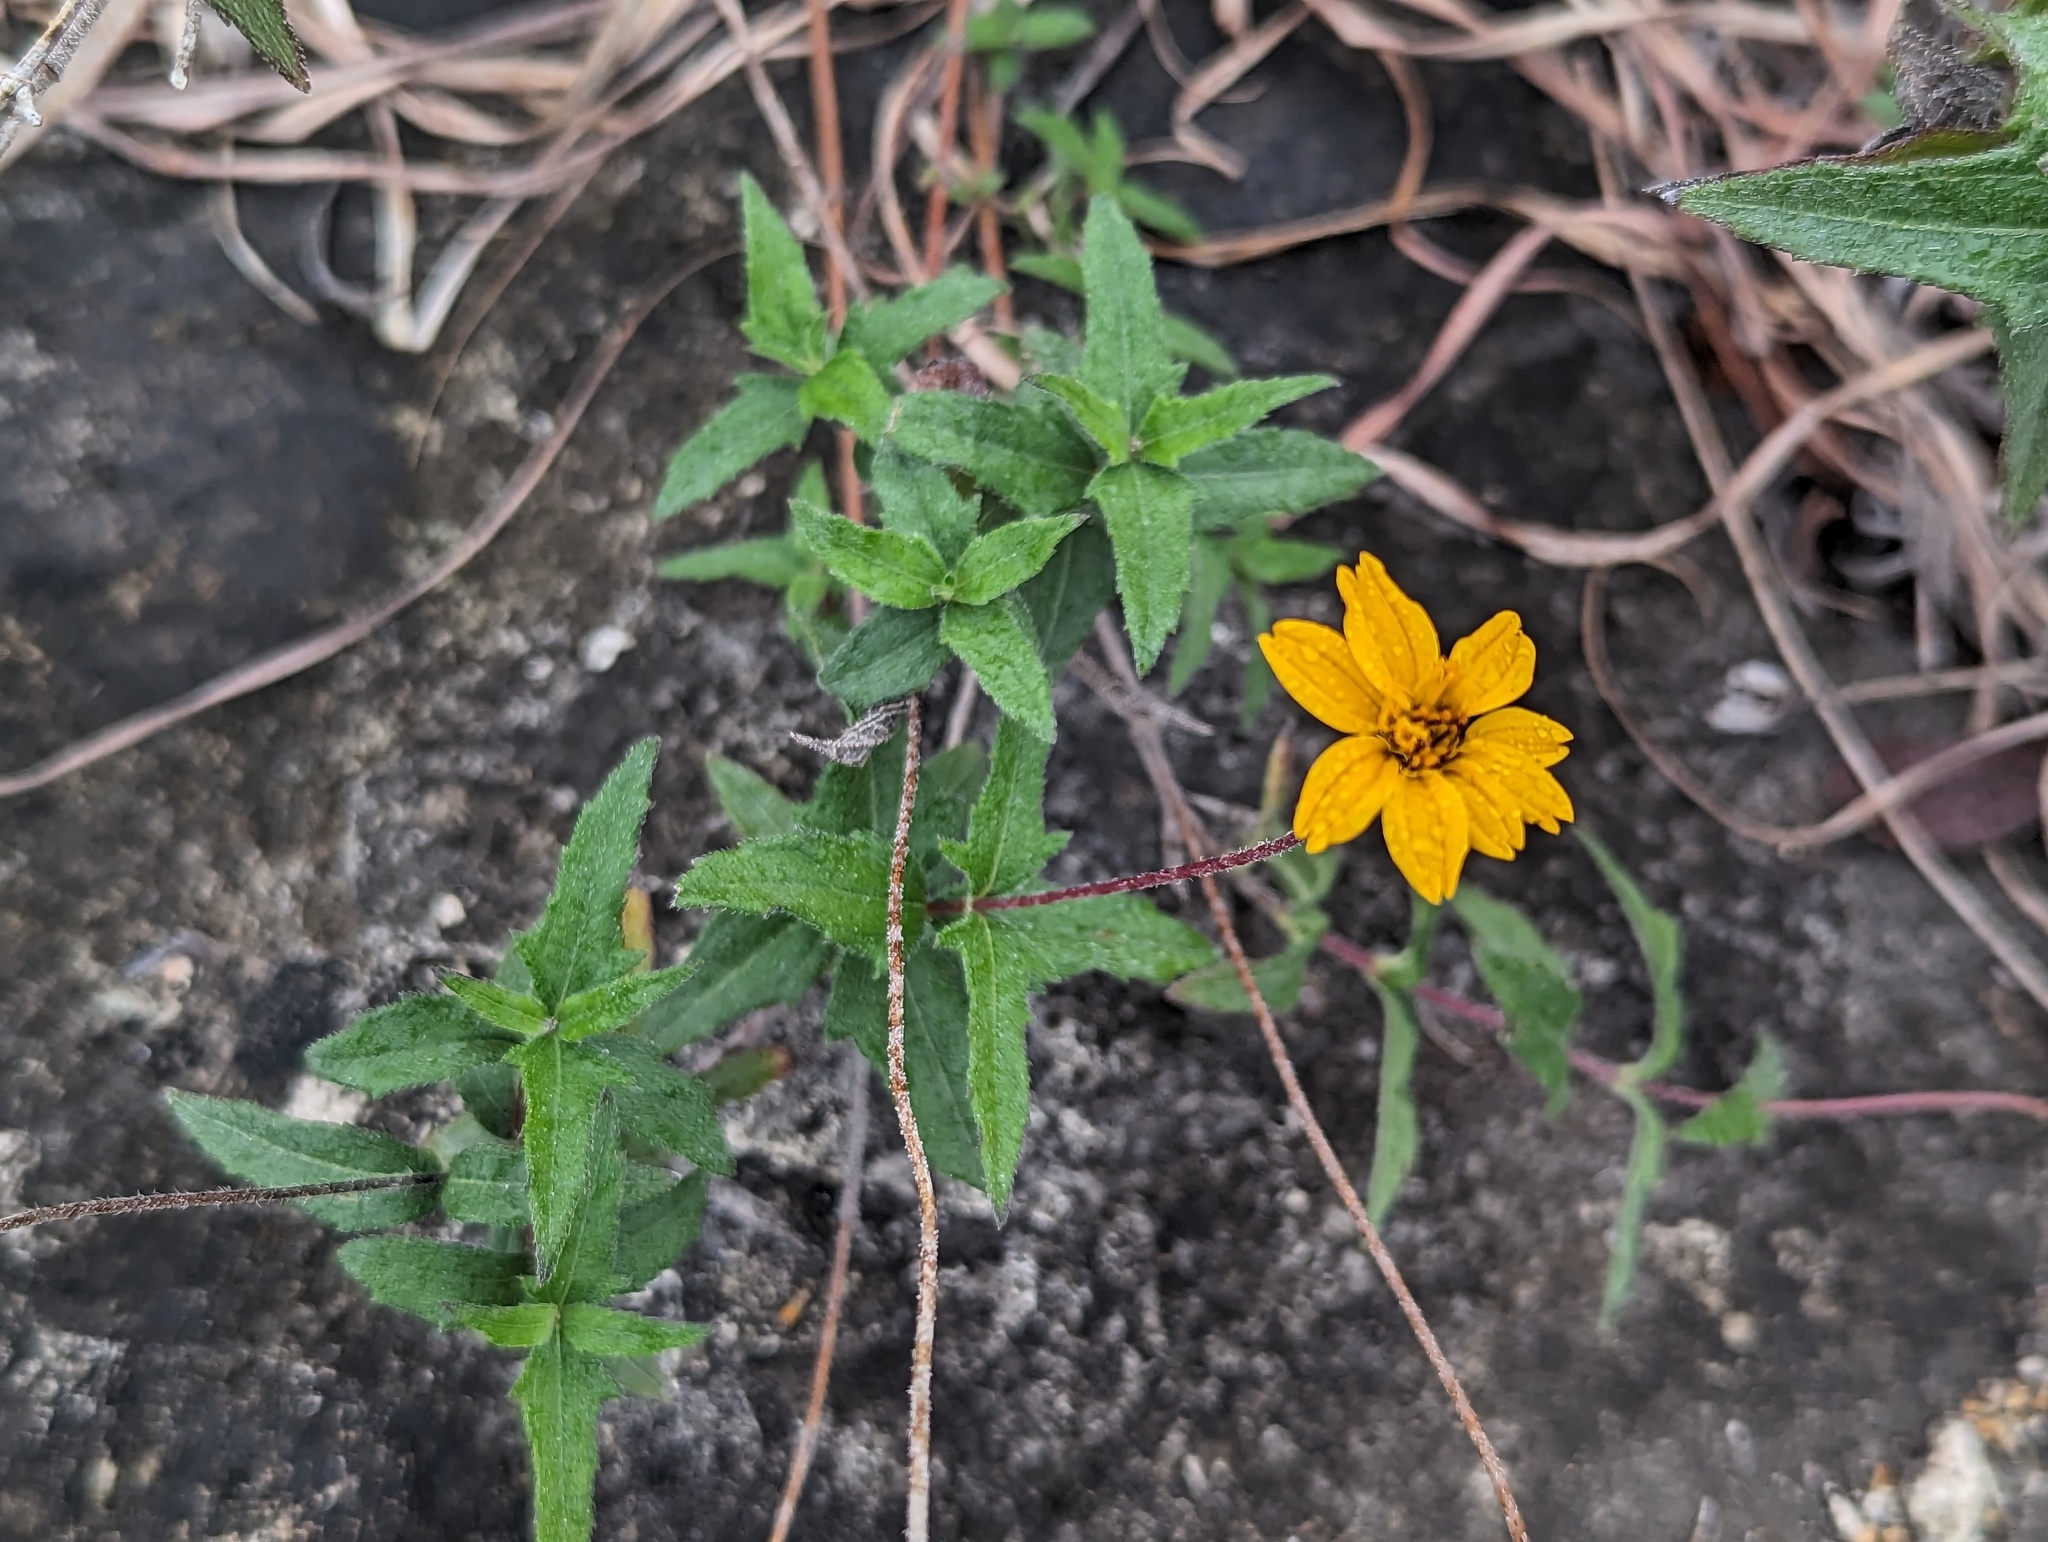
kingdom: Plantae
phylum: Tracheophyta
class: Magnoliopsida
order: Asterales
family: Asteraceae
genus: Wedelia
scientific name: Wedelia acapulcensis
